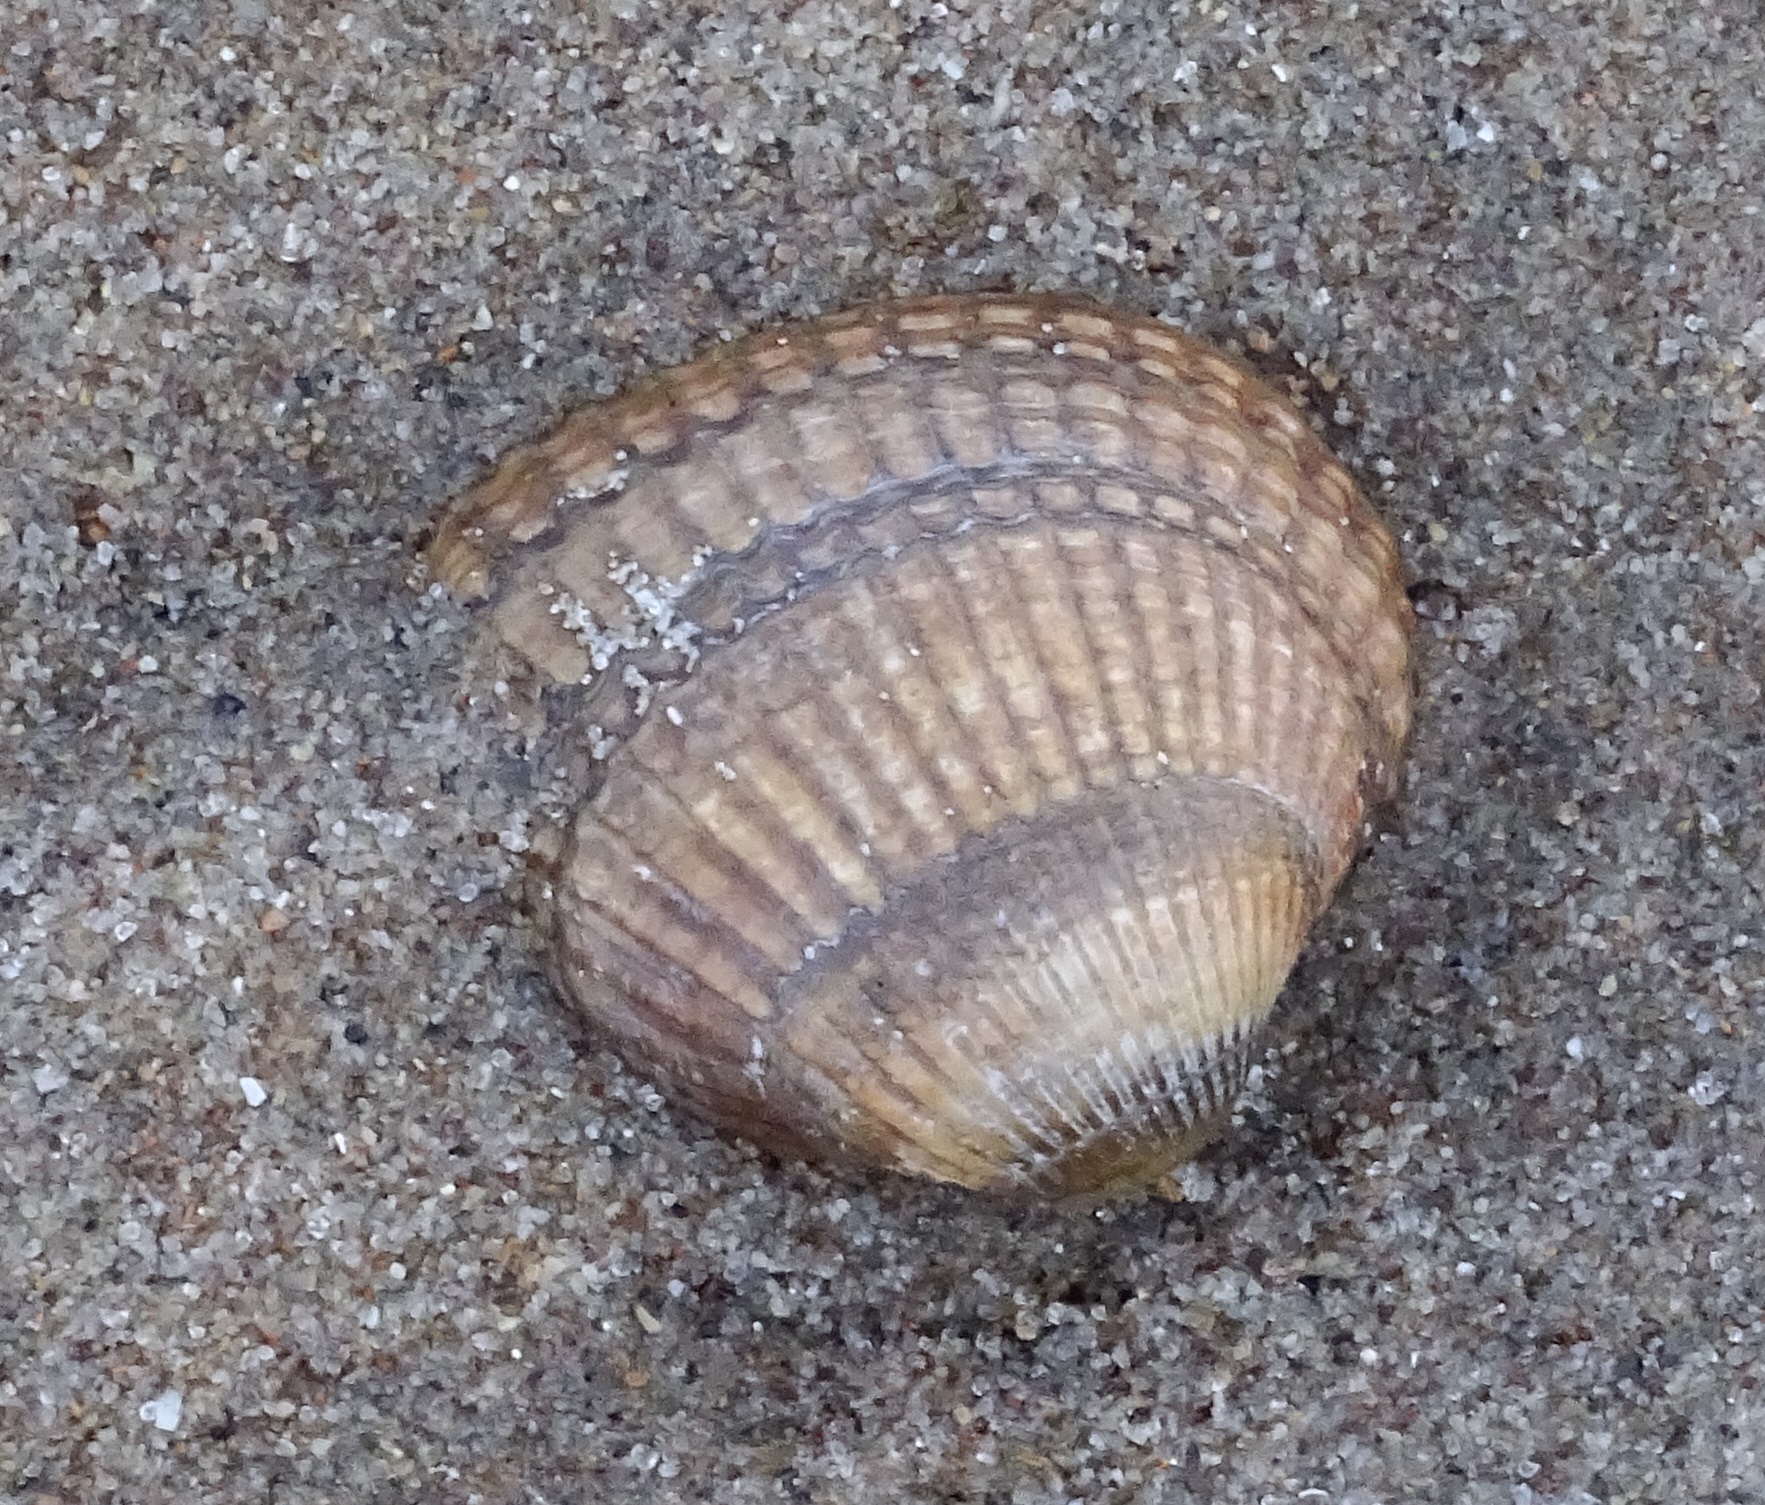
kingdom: Animalia
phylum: Mollusca
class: Bivalvia
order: Cardiida
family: Cardiidae
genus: Cerastoderma
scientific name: Cerastoderma edule
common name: Common cockle
